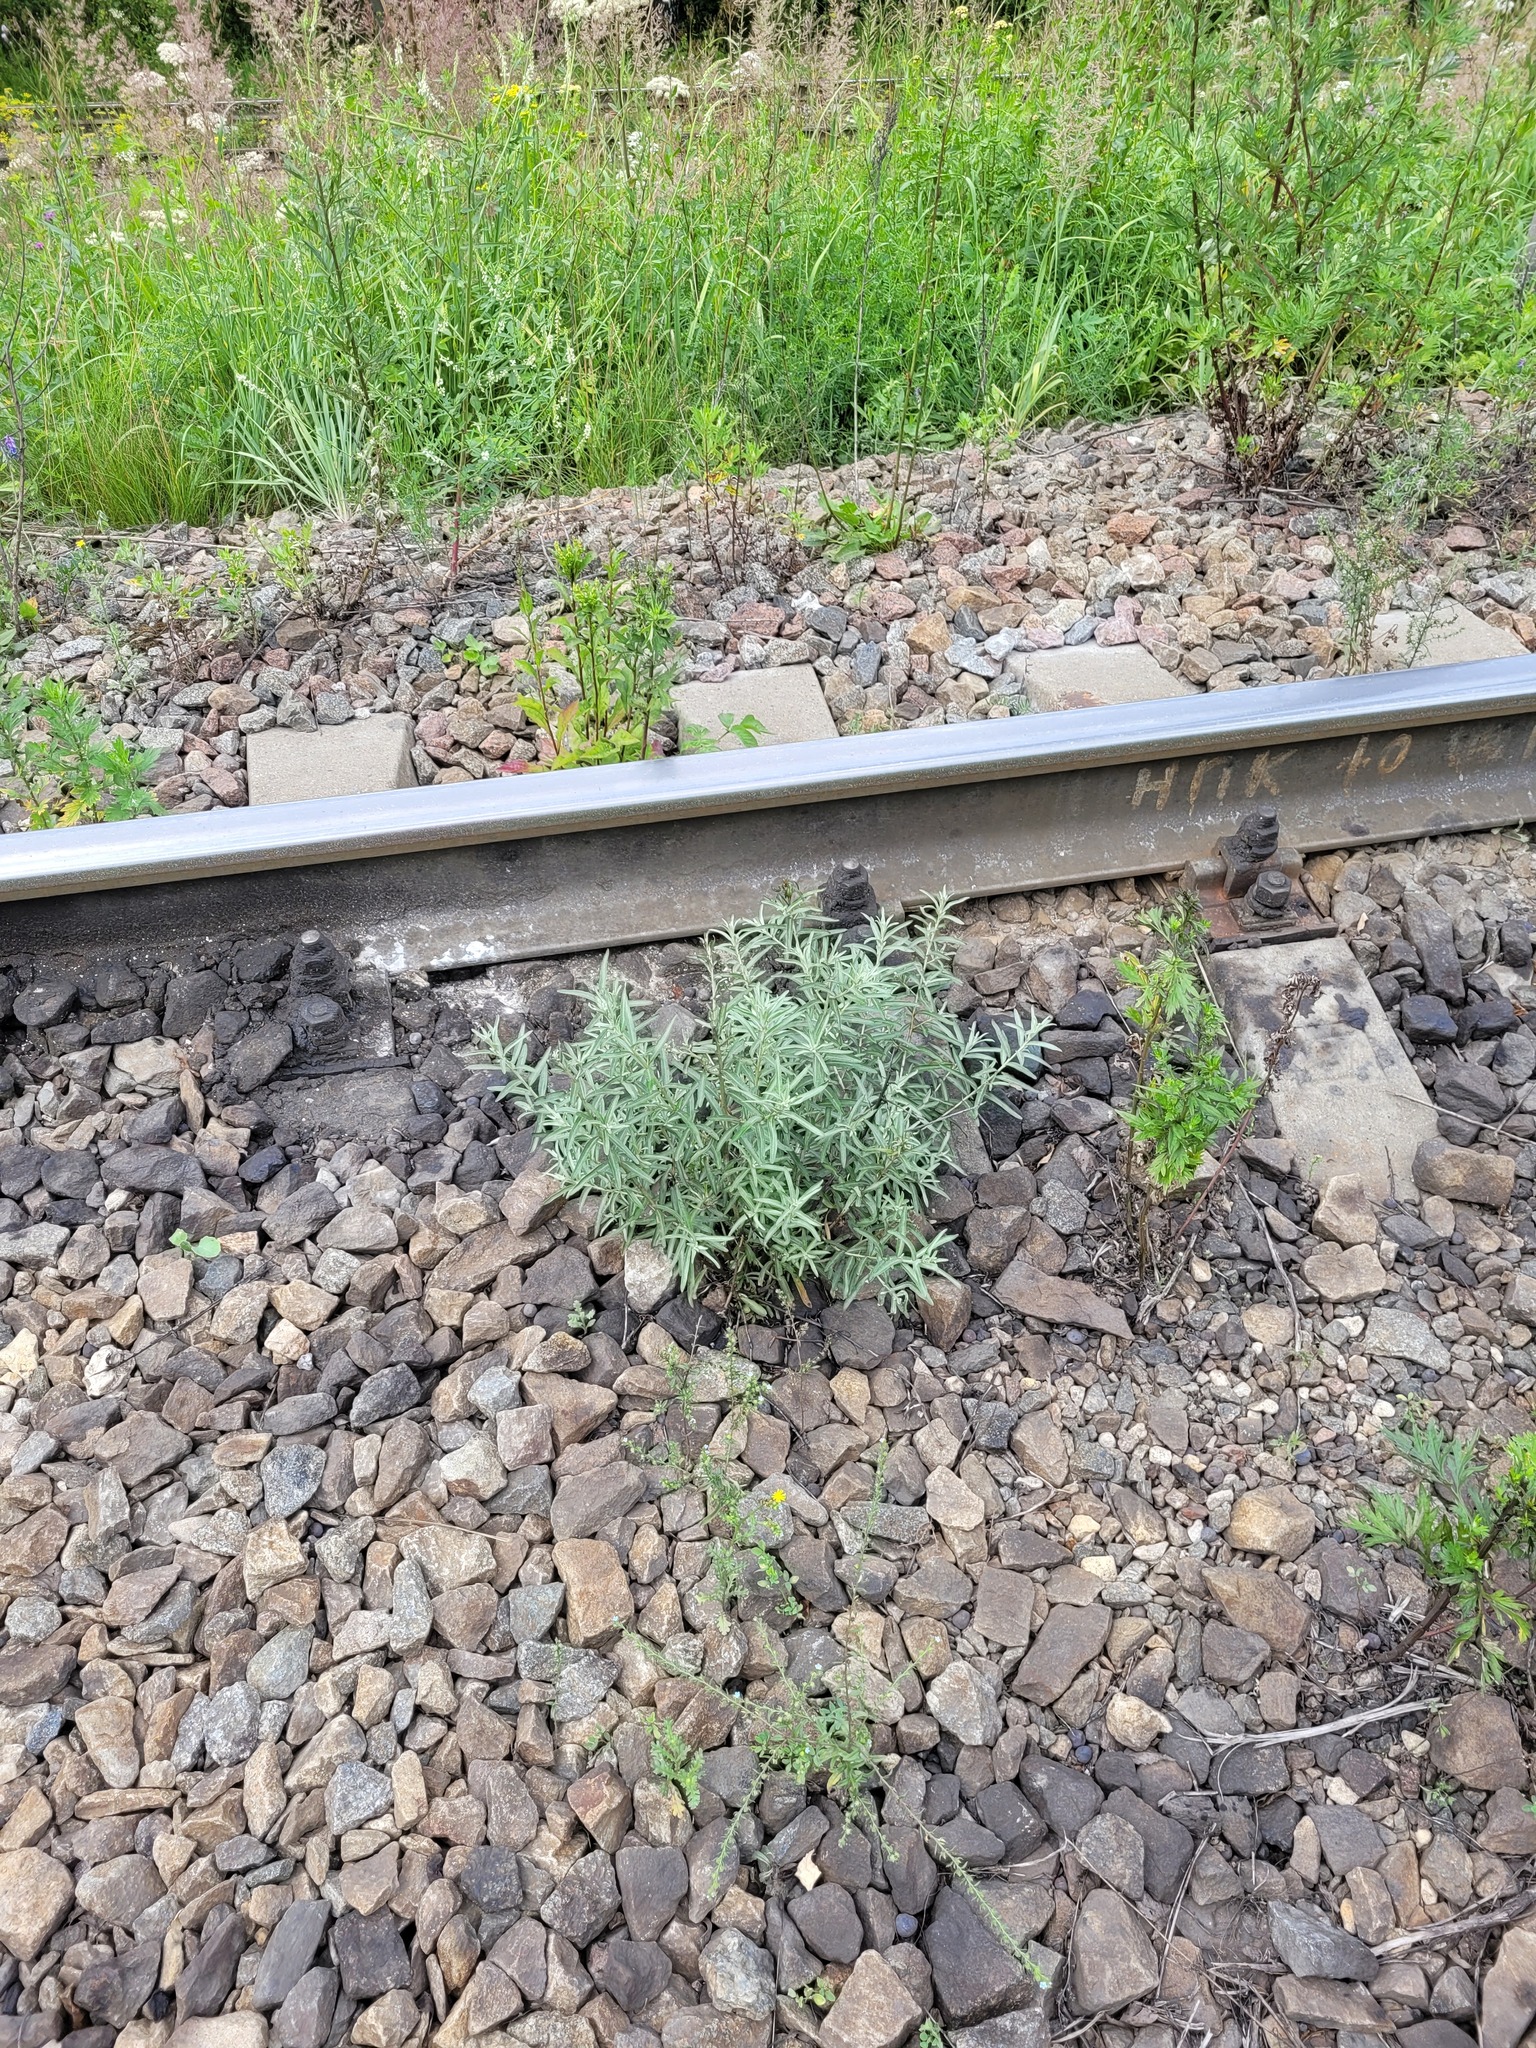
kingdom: Plantae
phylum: Tracheophyta
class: Magnoliopsida
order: Rosales
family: Elaeagnaceae
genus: Hippophae
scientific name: Hippophae rhamnoides
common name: Sea-buckthorn
